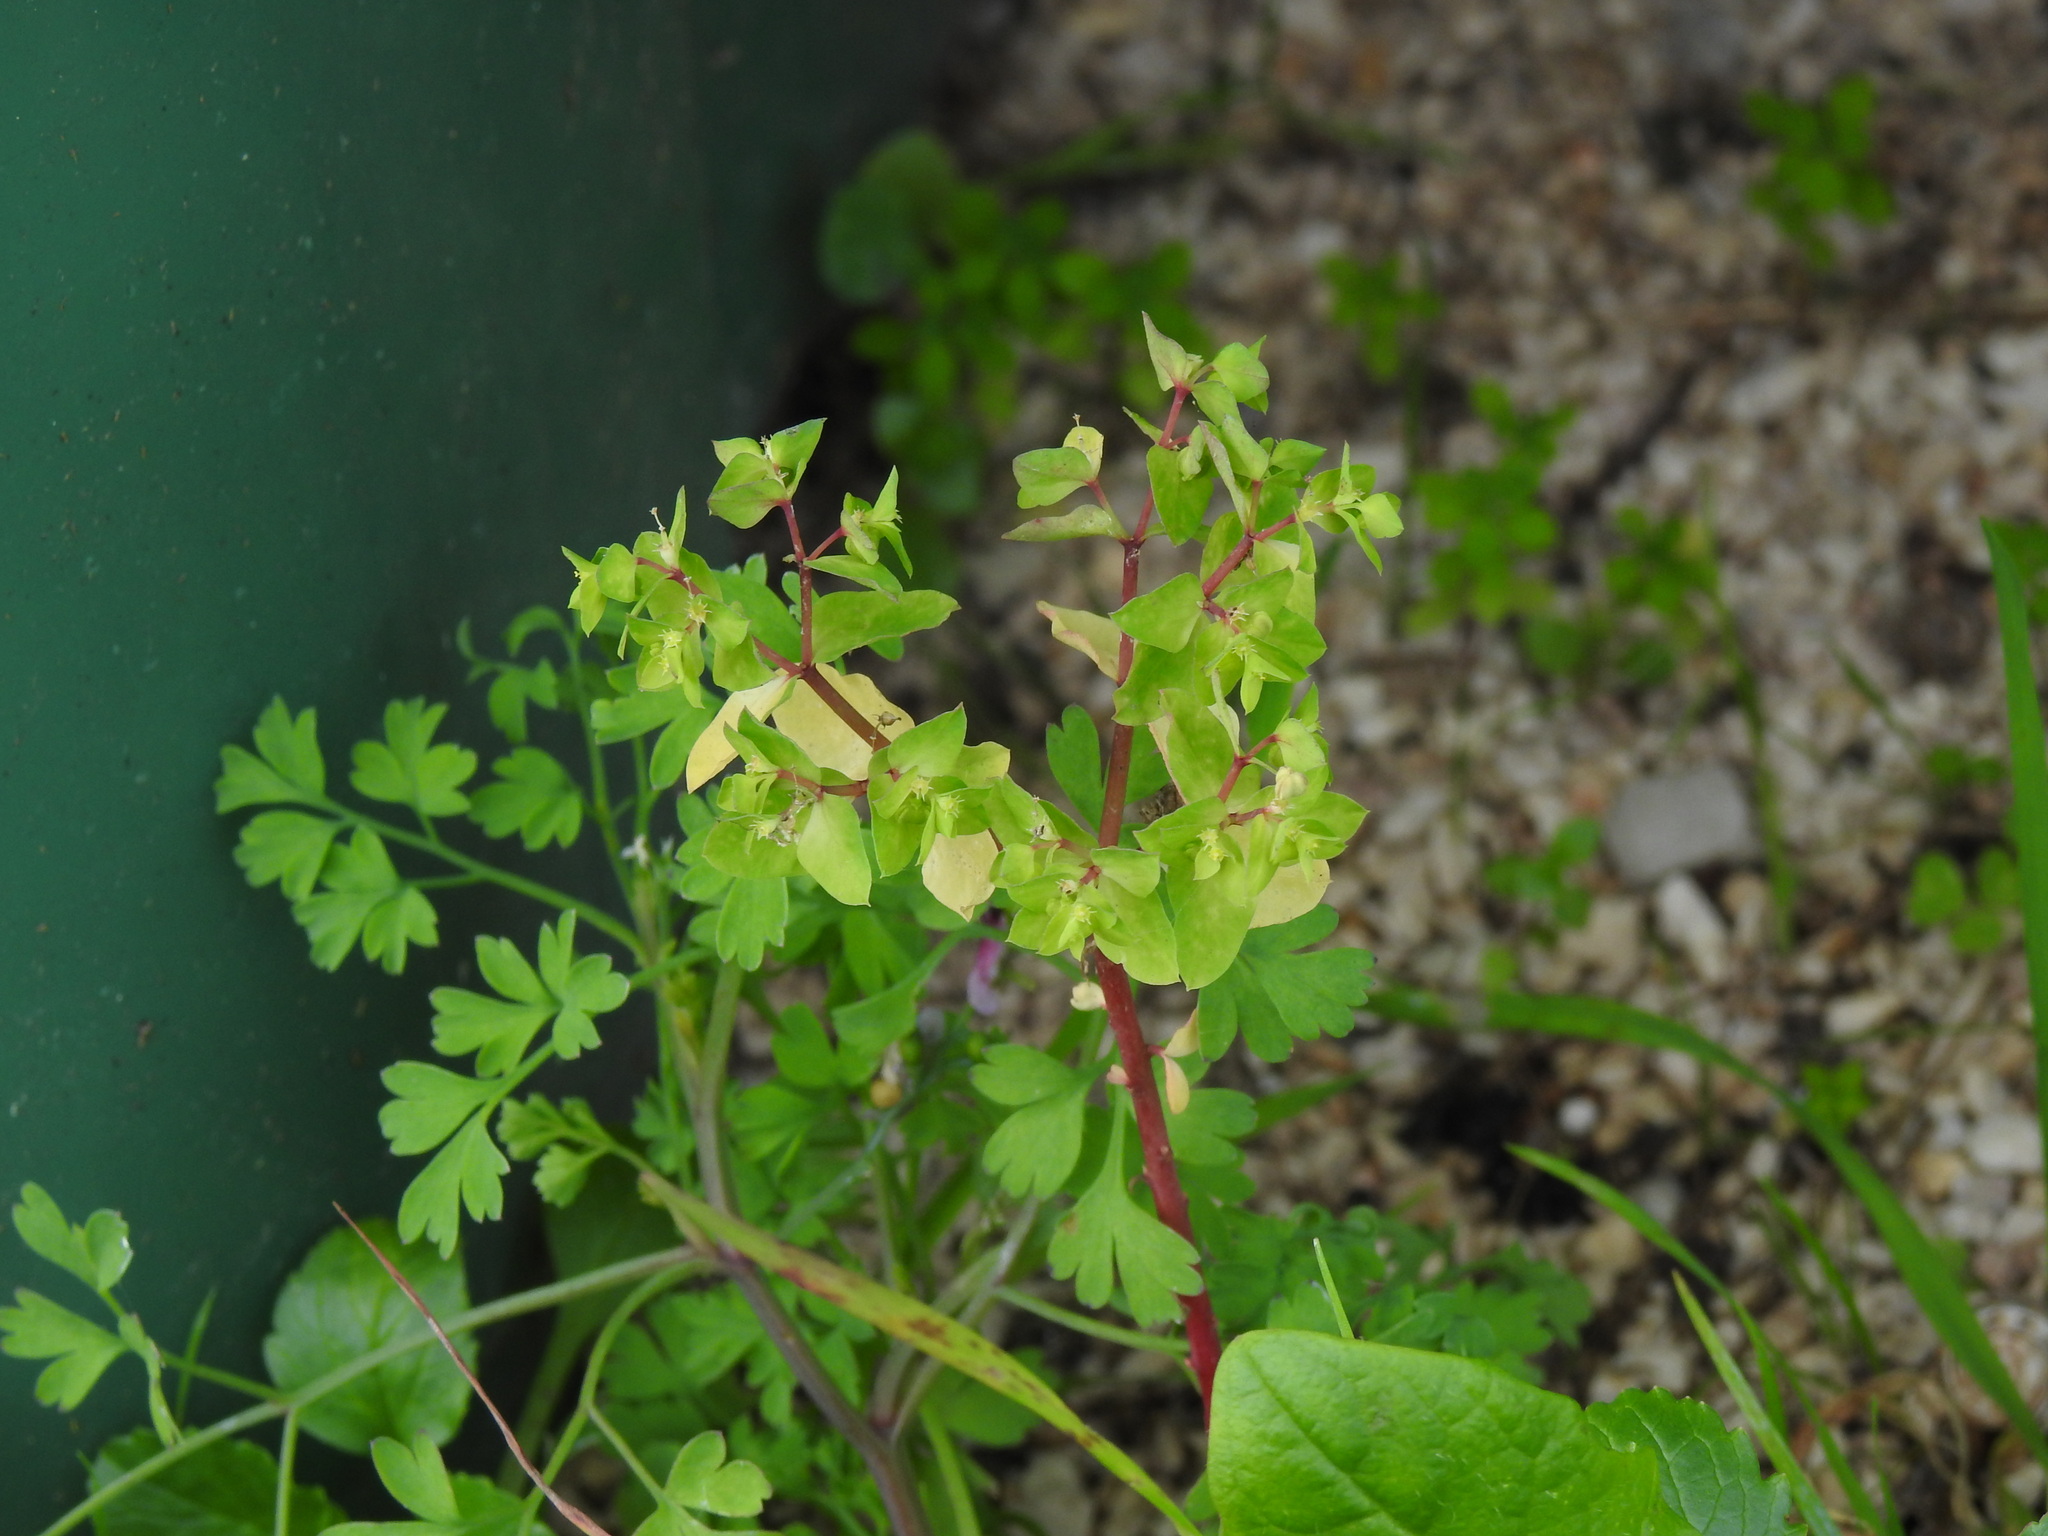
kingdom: Plantae
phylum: Tracheophyta
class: Magnoliopsida
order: Malpighiales
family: Euphorbiaceae
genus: Euphorbia
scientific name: Euphorbia peplus
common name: Petty spurge
